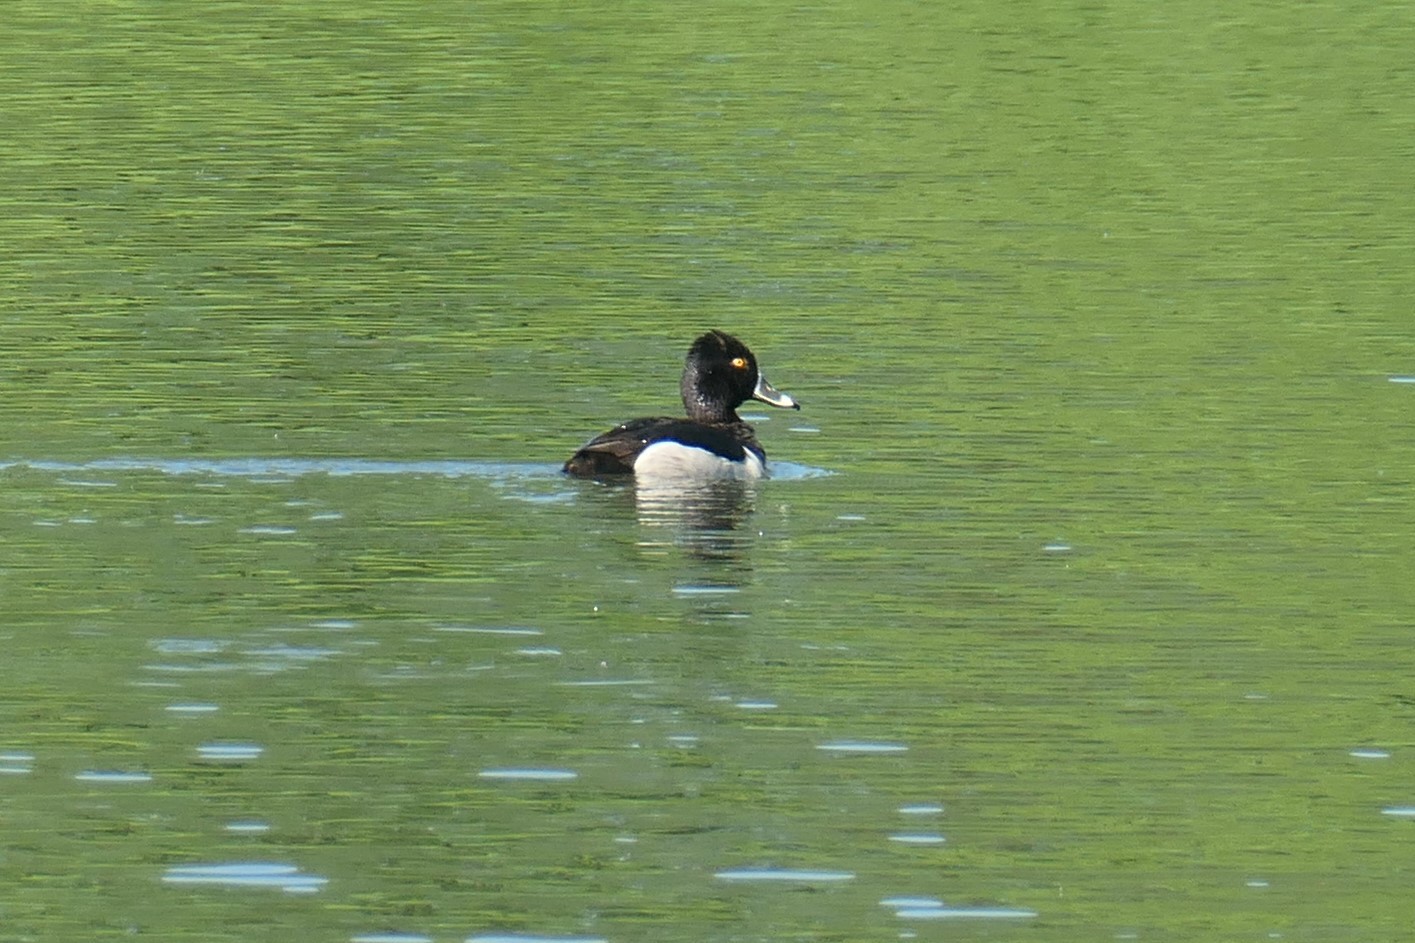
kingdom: Animalia
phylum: Chordata
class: Aves
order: Anseriformes
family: Anatidae
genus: Aythya
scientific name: Aythya collaris
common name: Ring-necked duck
